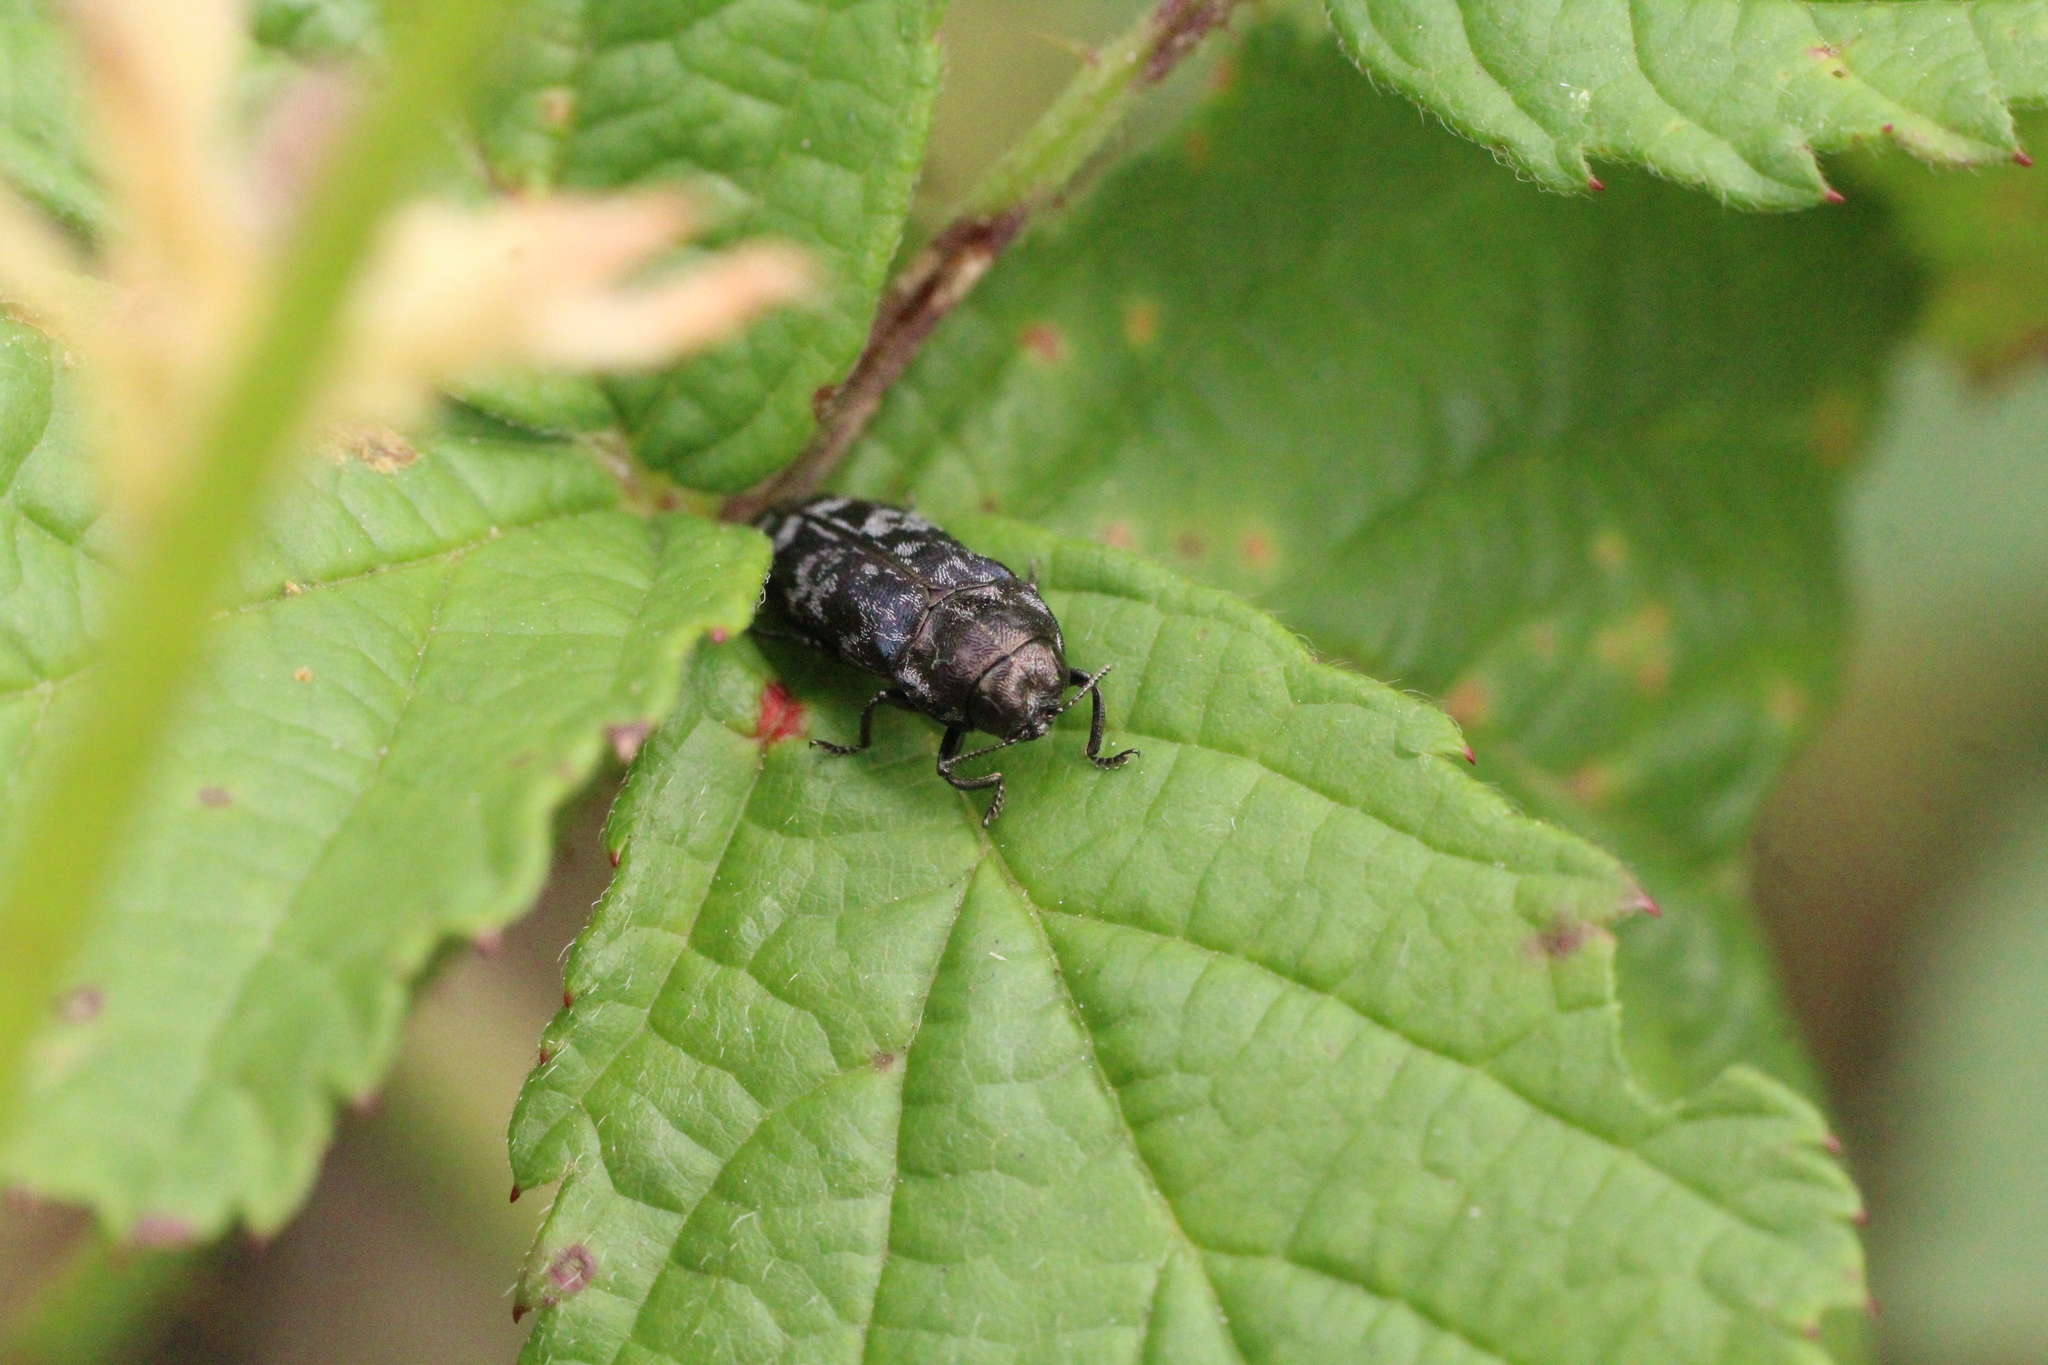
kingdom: Animalia
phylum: Arthropoda
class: Insecta
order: Coleoptera
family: Buprestidae
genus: Coraebus
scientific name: Coraebus rubi
